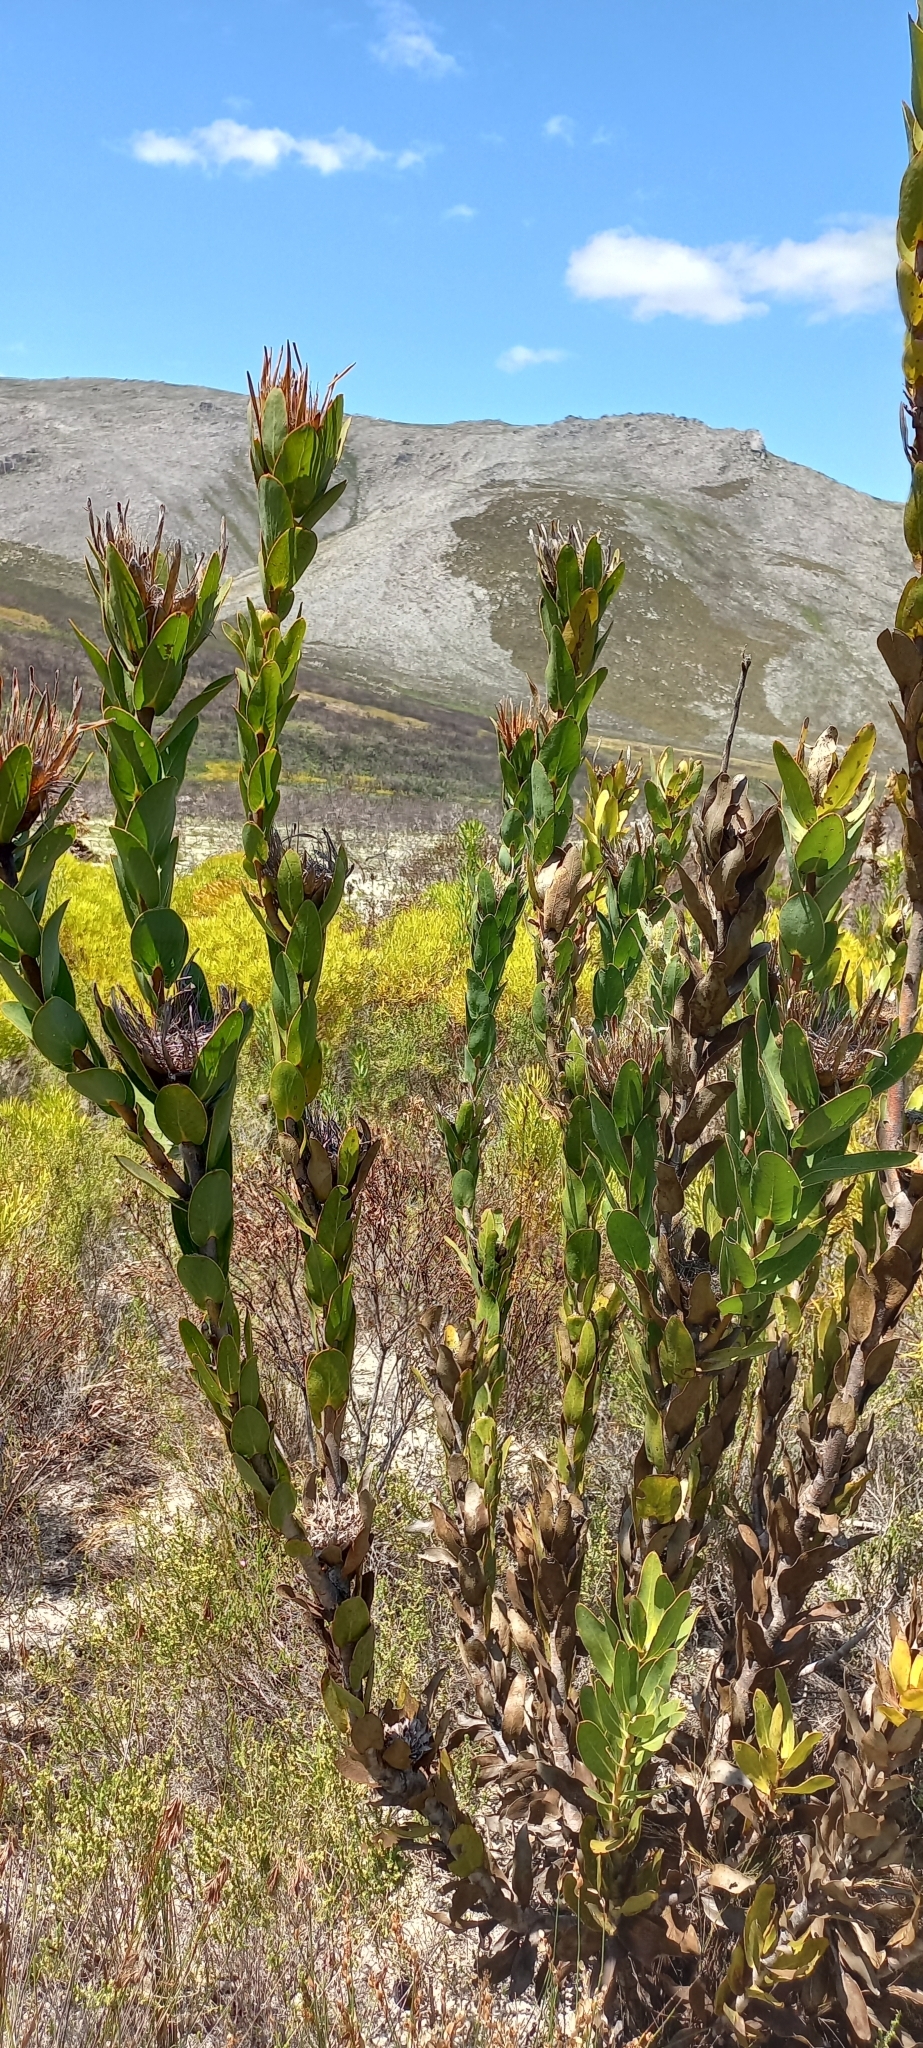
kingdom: Plantae
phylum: Tracheophyta
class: Magnoliopsida
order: Proteales
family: Proteaceae
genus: Protea
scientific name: Protea compacta
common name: Bot river protea
